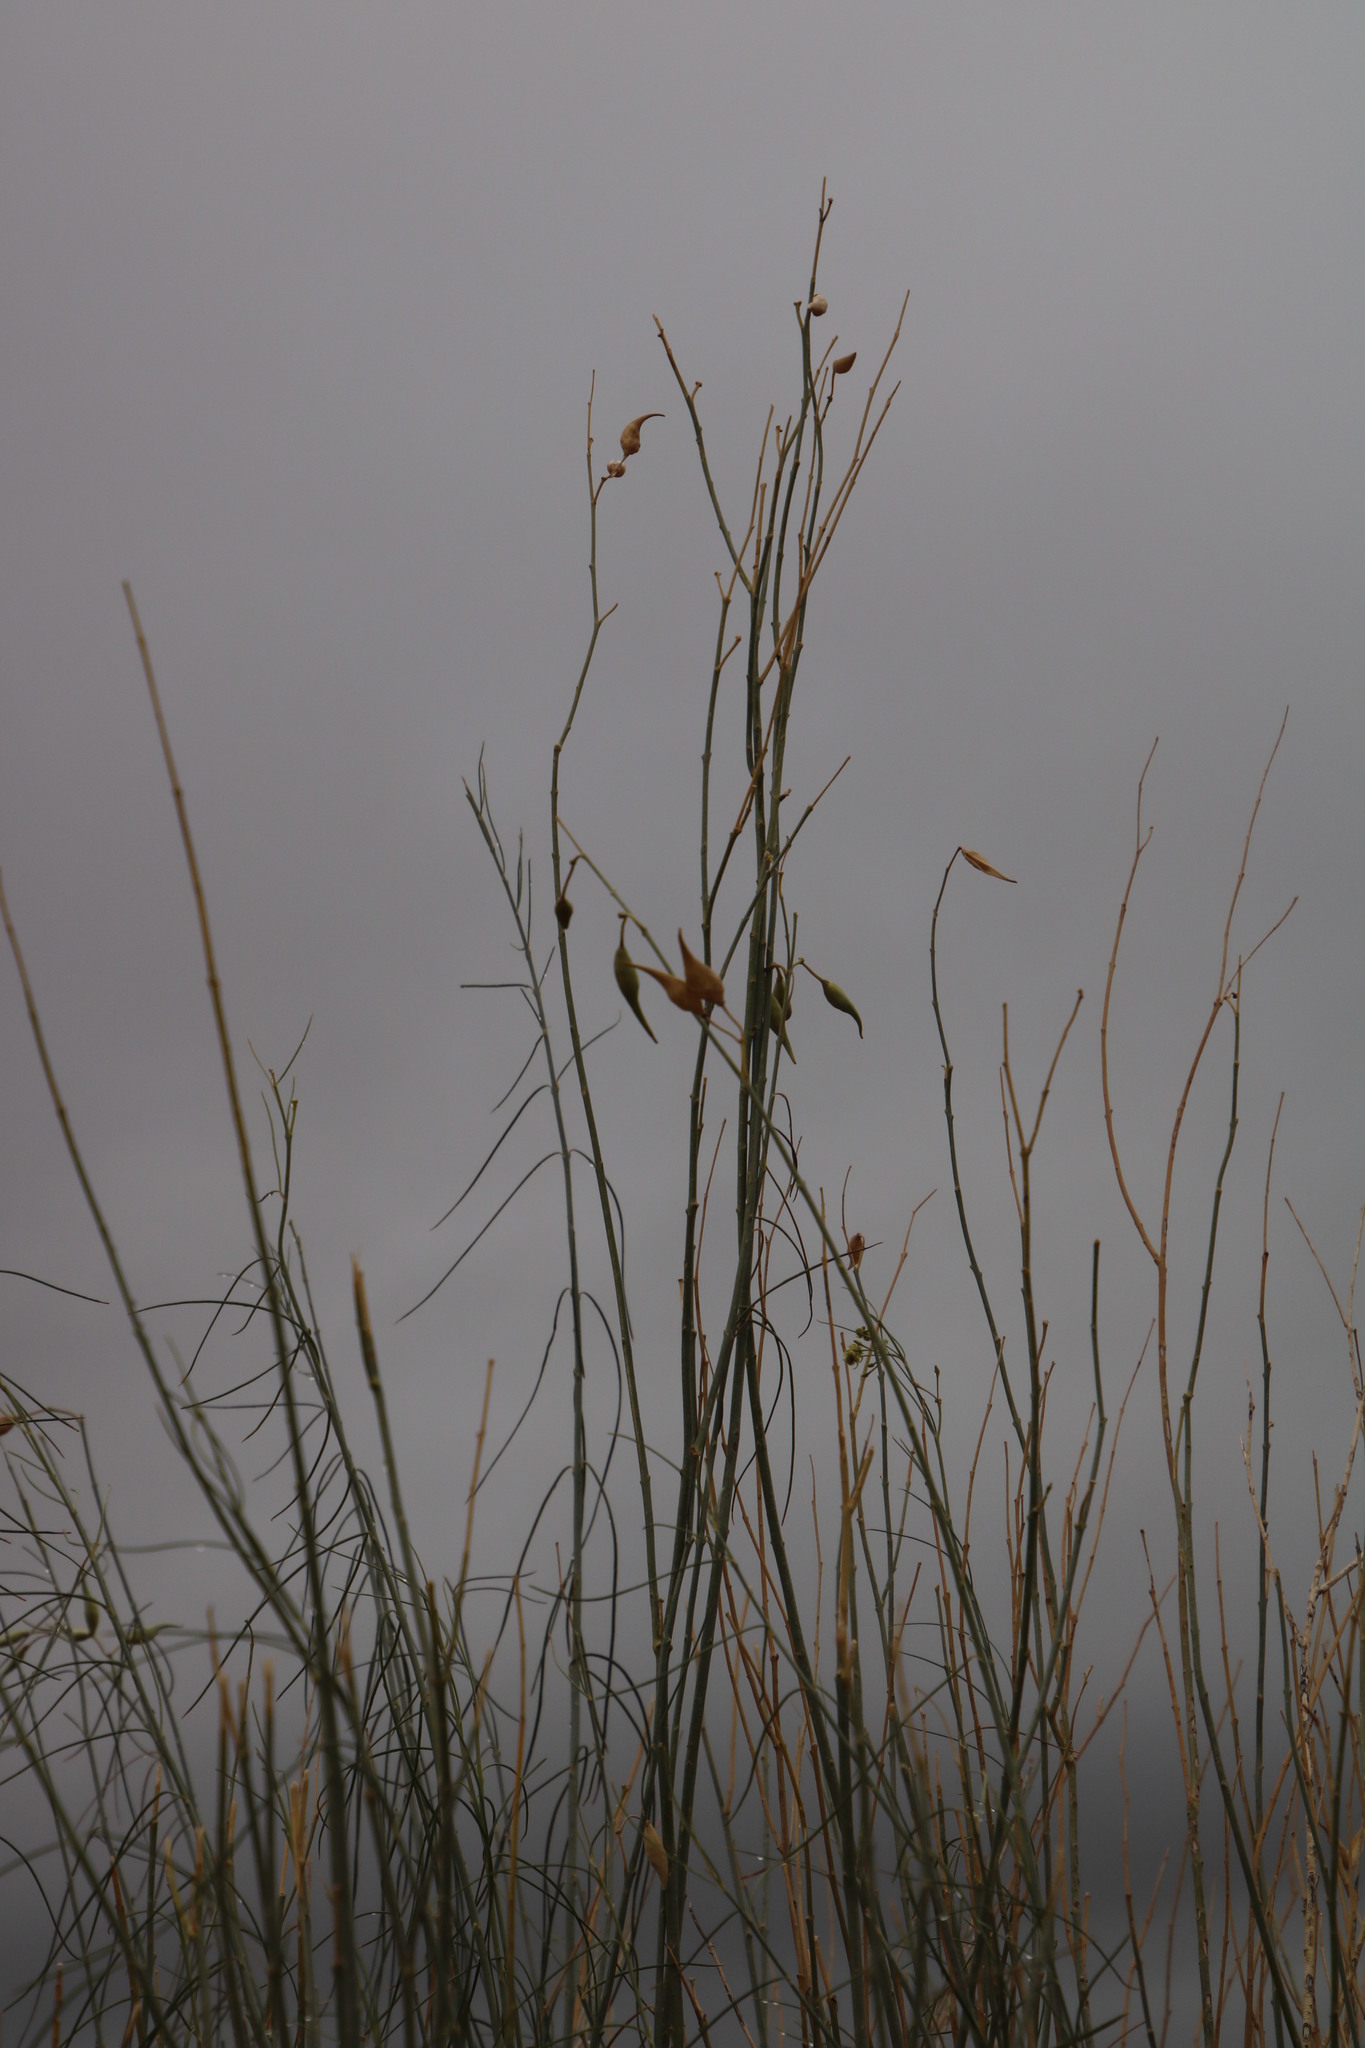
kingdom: Plantae
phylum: Tracheophyta
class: Magnoliopsida
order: Gentianales
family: Apocynaceae
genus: Gomphocarpus
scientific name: Gomphocarpus filiformis
